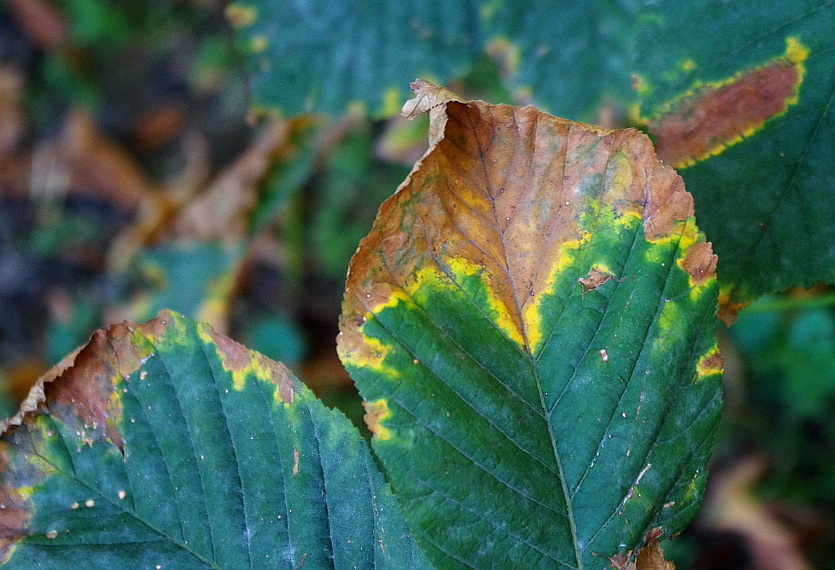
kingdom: Fungi
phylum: Ascomycota
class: Dothideomycetes
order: Botryosphaeriales
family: Phyllostictaceae
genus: Phyllosticta
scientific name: Phyllosticta paviae
